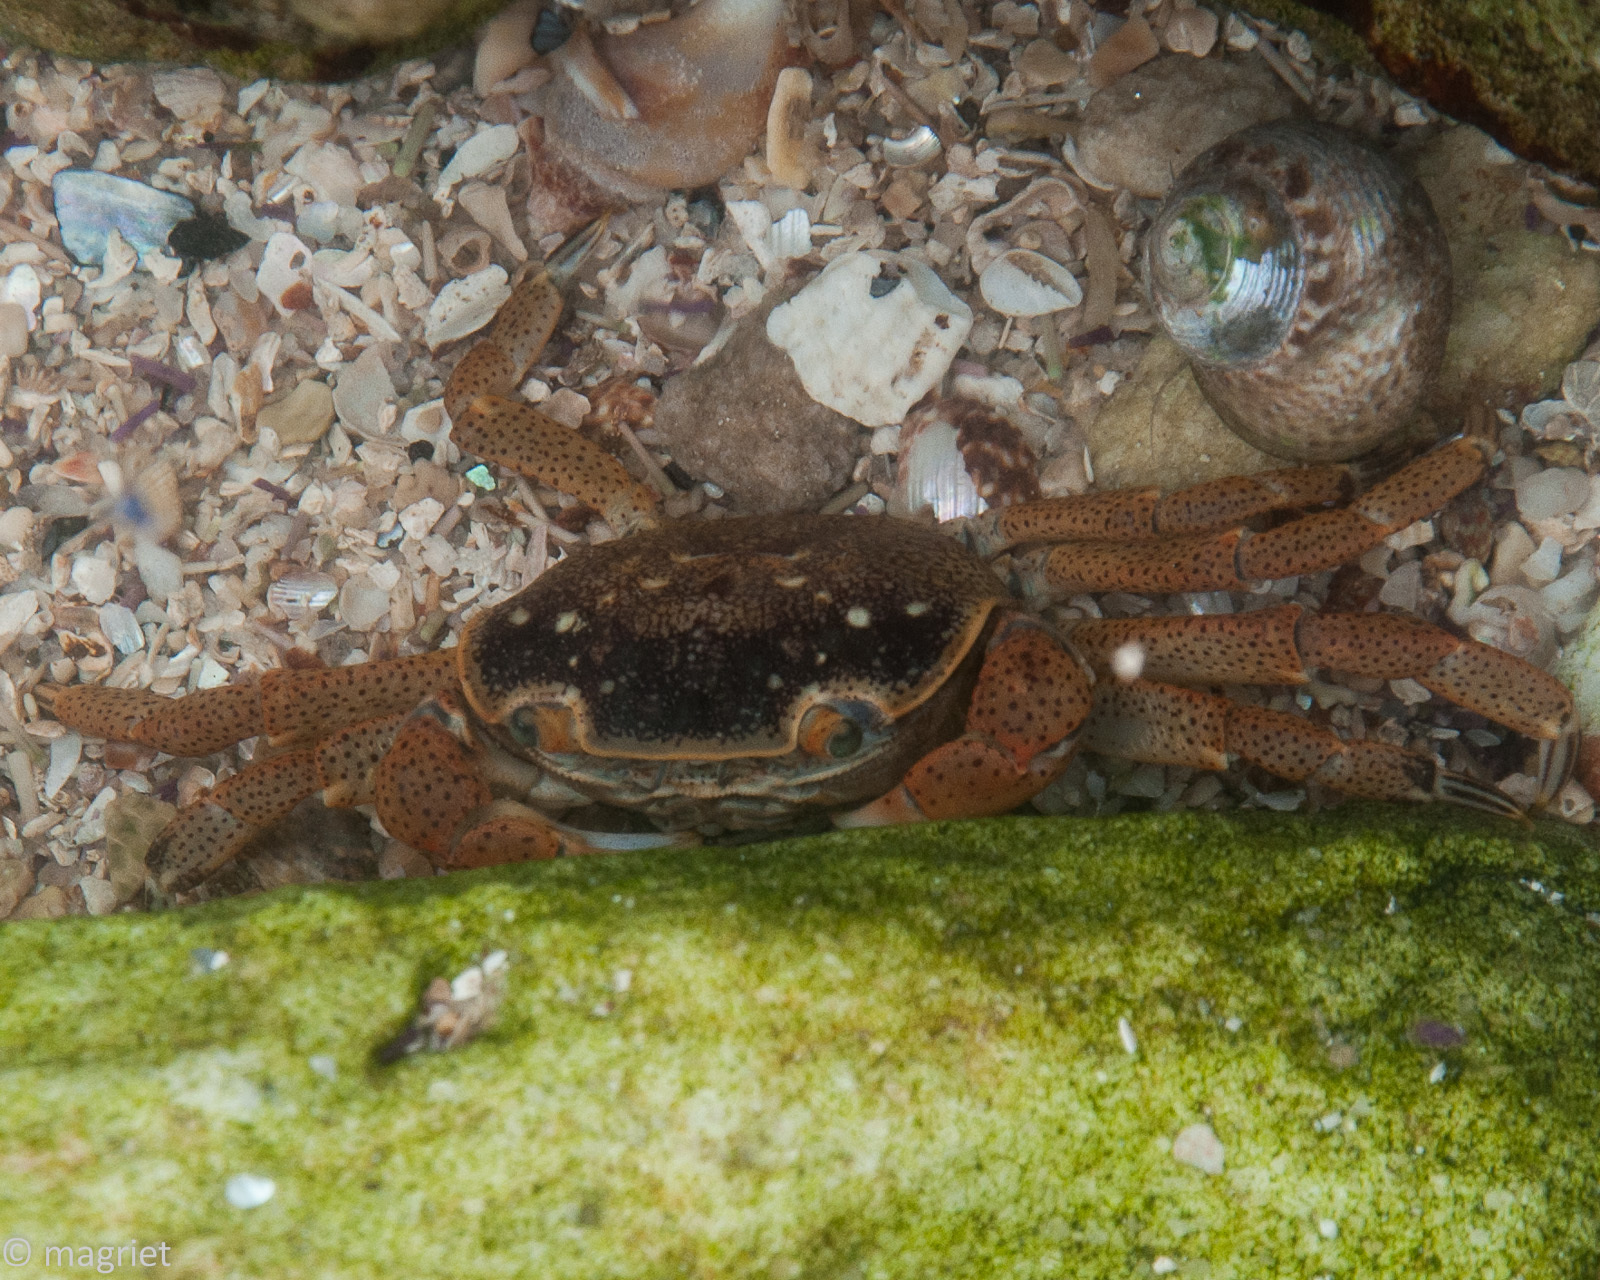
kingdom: Animalia
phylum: Arthropoda
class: Malacostraca
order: Decapoda
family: Varunidae
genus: Cyclograpsus
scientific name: Cyclograpsus punctatus
